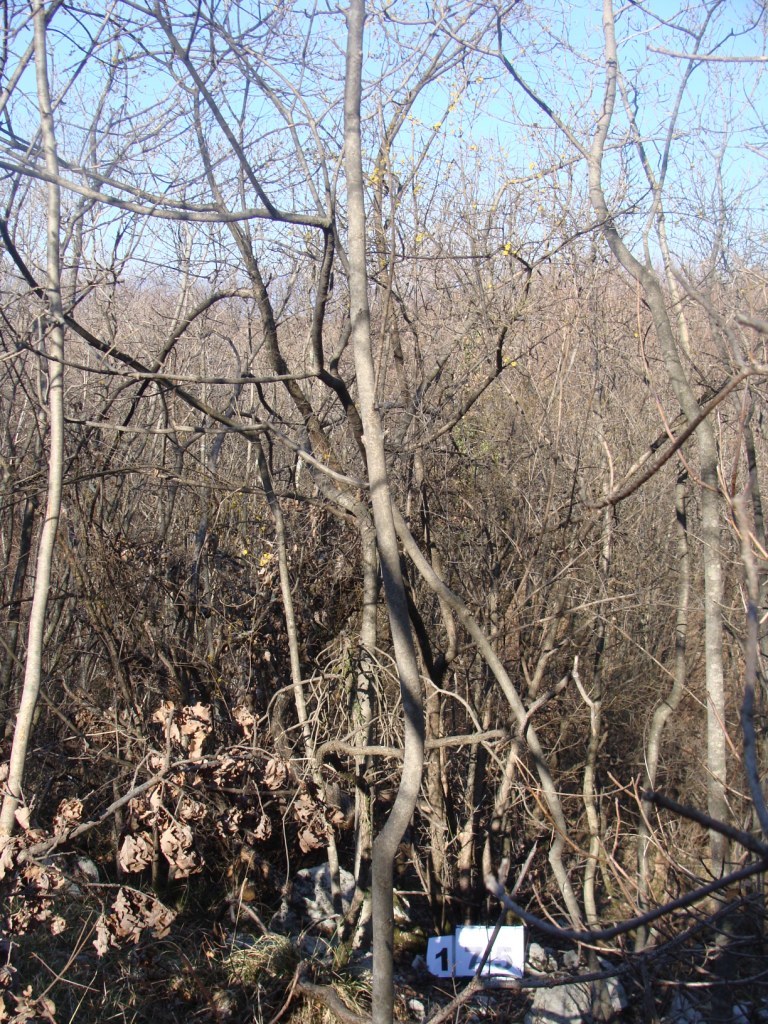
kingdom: Plantae
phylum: Tracheophyta
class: Magnoliopsida
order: Cornales
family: Cornaceae
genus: Cornus
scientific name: Cornus mas
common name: Cornelian-cherry
